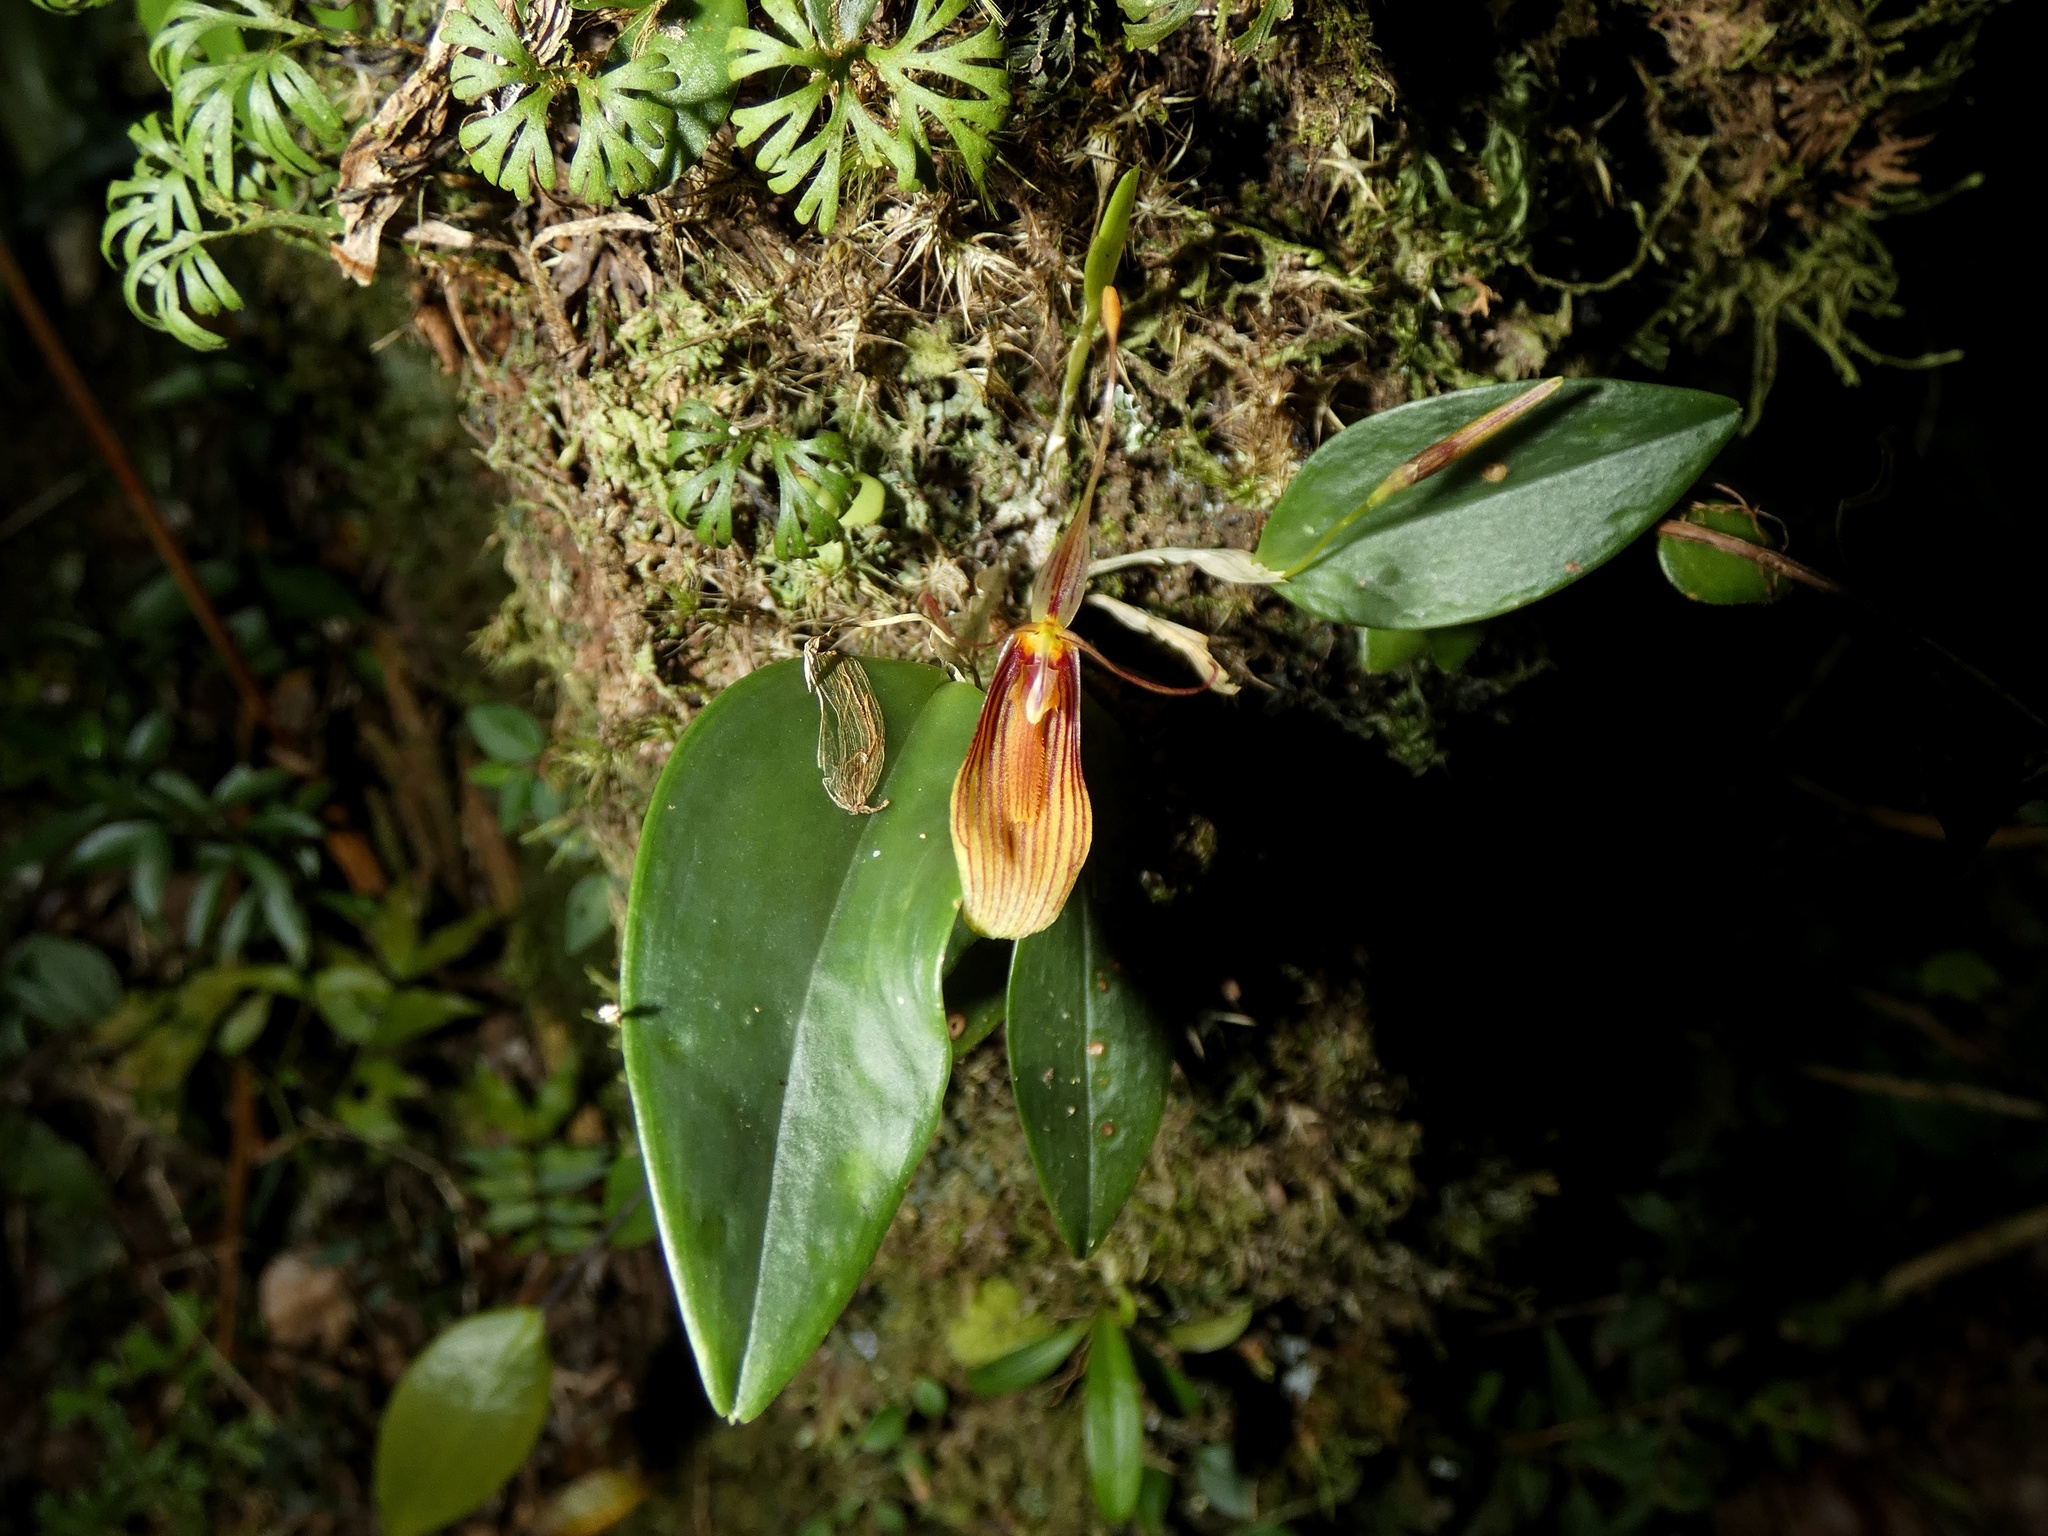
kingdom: Plantae
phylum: Tracheophyta
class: Liliopsida
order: Asparagales
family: Orchidaceae
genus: Restrepia
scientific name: Restrepia trichoglossa
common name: Hairy tongued restrepia
